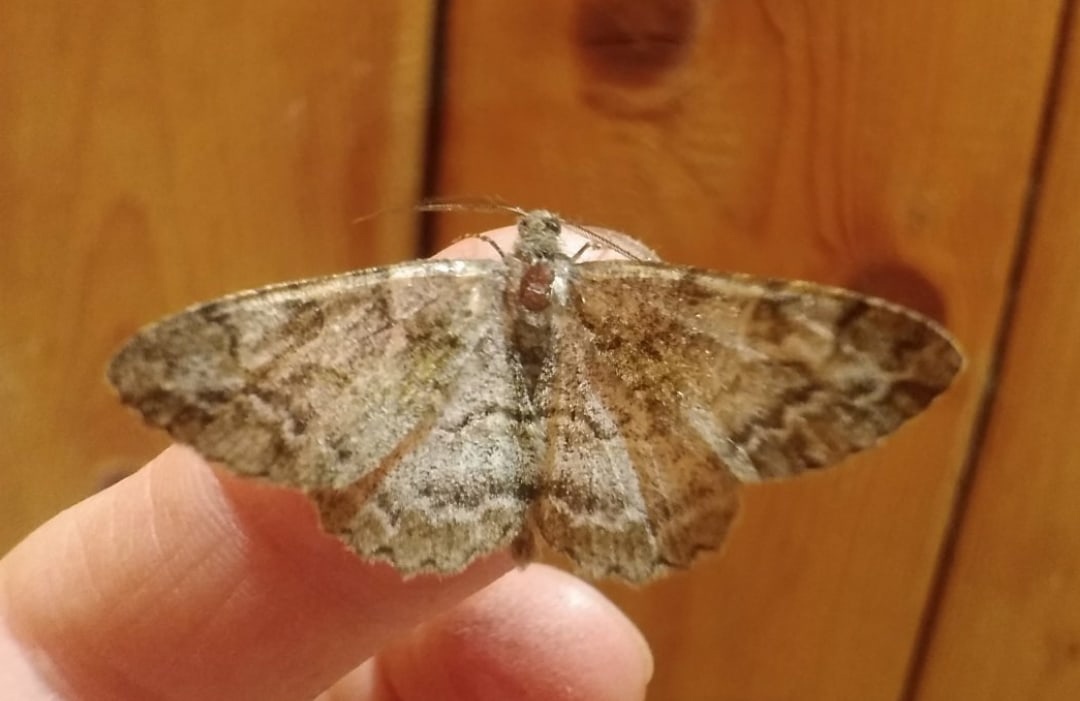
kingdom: Animalia
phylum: Arthropoda
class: Insecta
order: Lepidoptera
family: Geometridae
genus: Alcis
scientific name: Alcis repandata
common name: Mottled beauty
